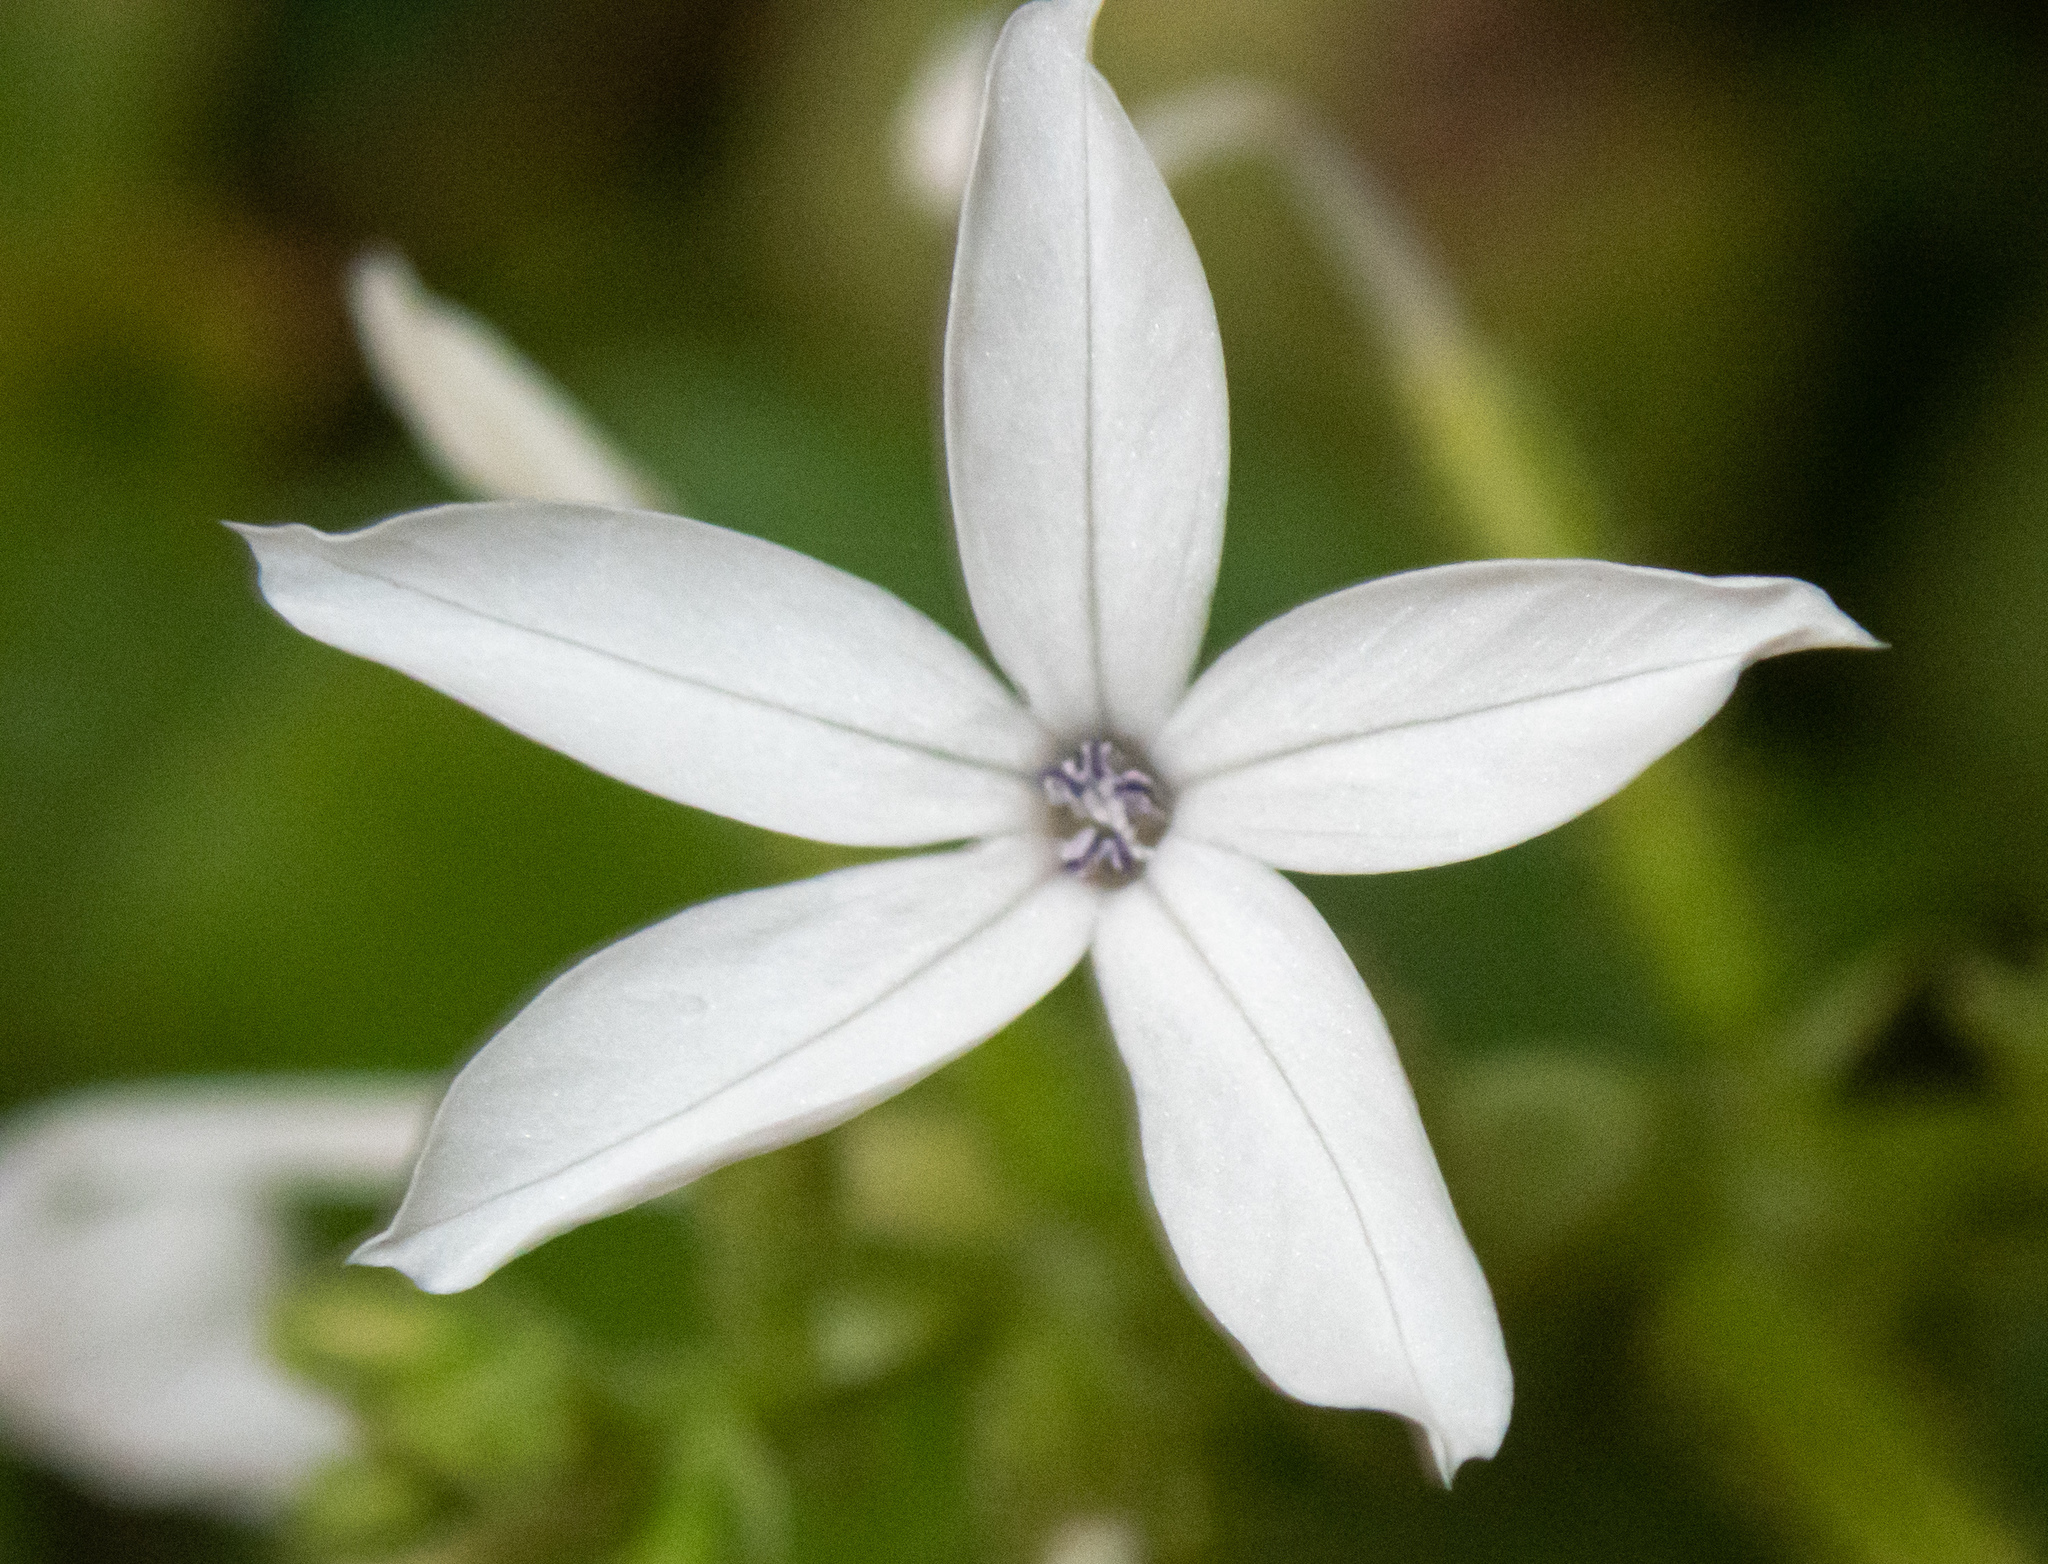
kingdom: Plantae
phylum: Tracheophyta
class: Magnoliopsida
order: Caryophyllales
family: Plumbaginaceae
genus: Plumbago
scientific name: Plumbago zeylanica
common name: Doctorbush
